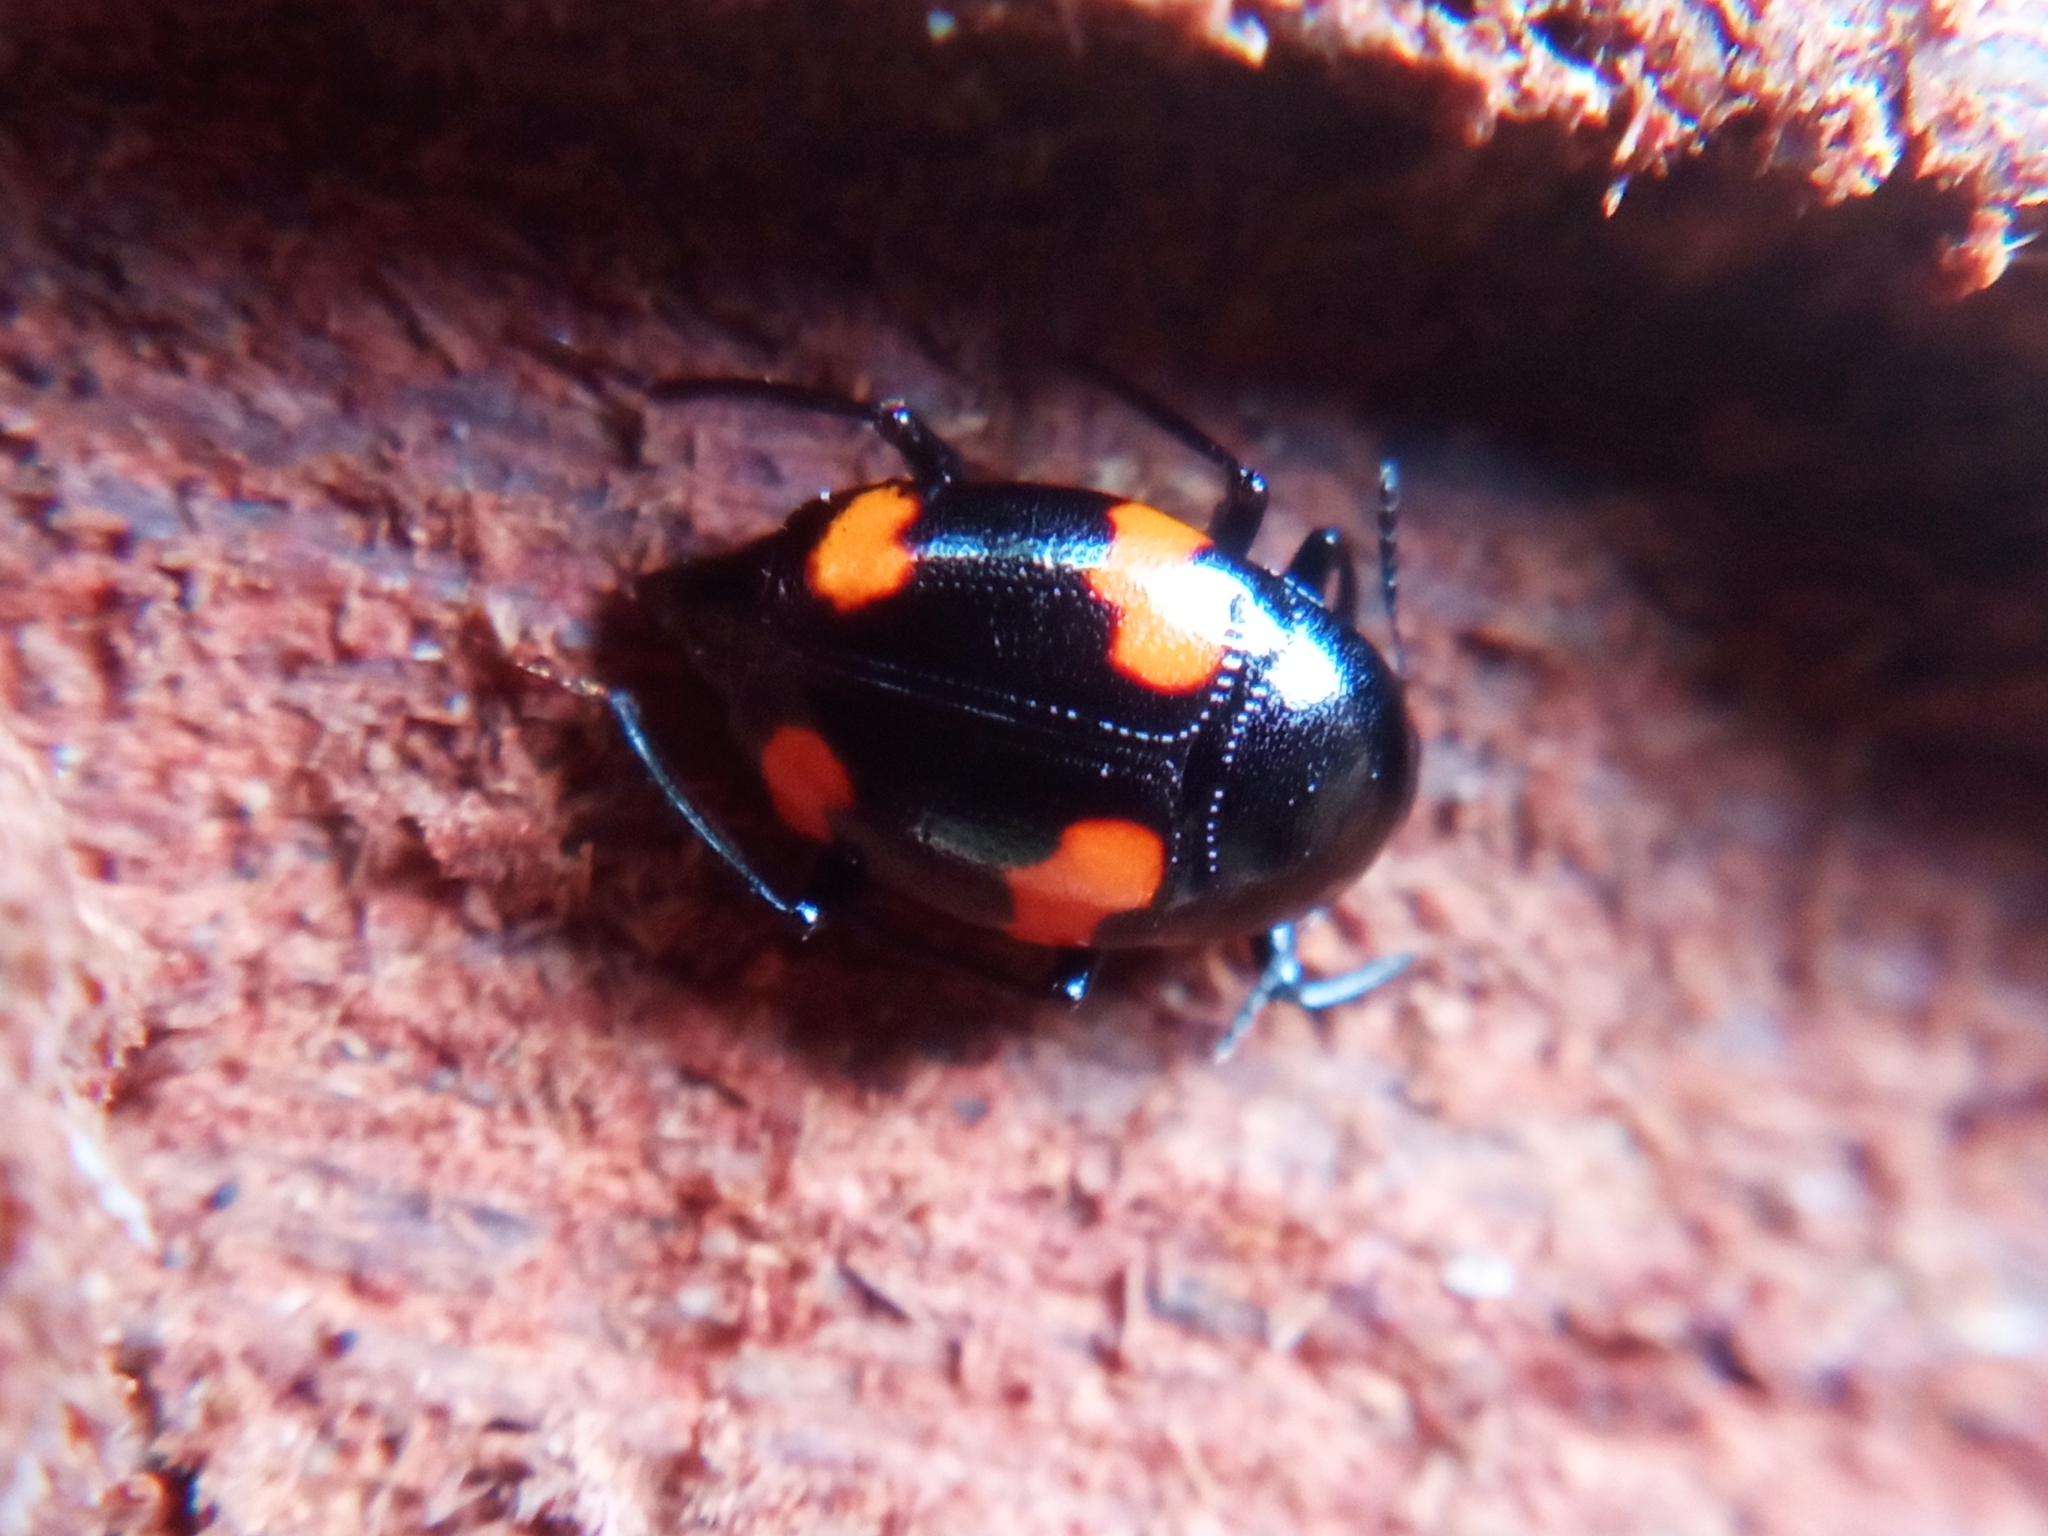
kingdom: Animalia
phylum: Arthropoda
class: Insecta
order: Coleoptera
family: Staphylinidae
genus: Scaphidium
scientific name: Scaphidium quadrimaculatum
